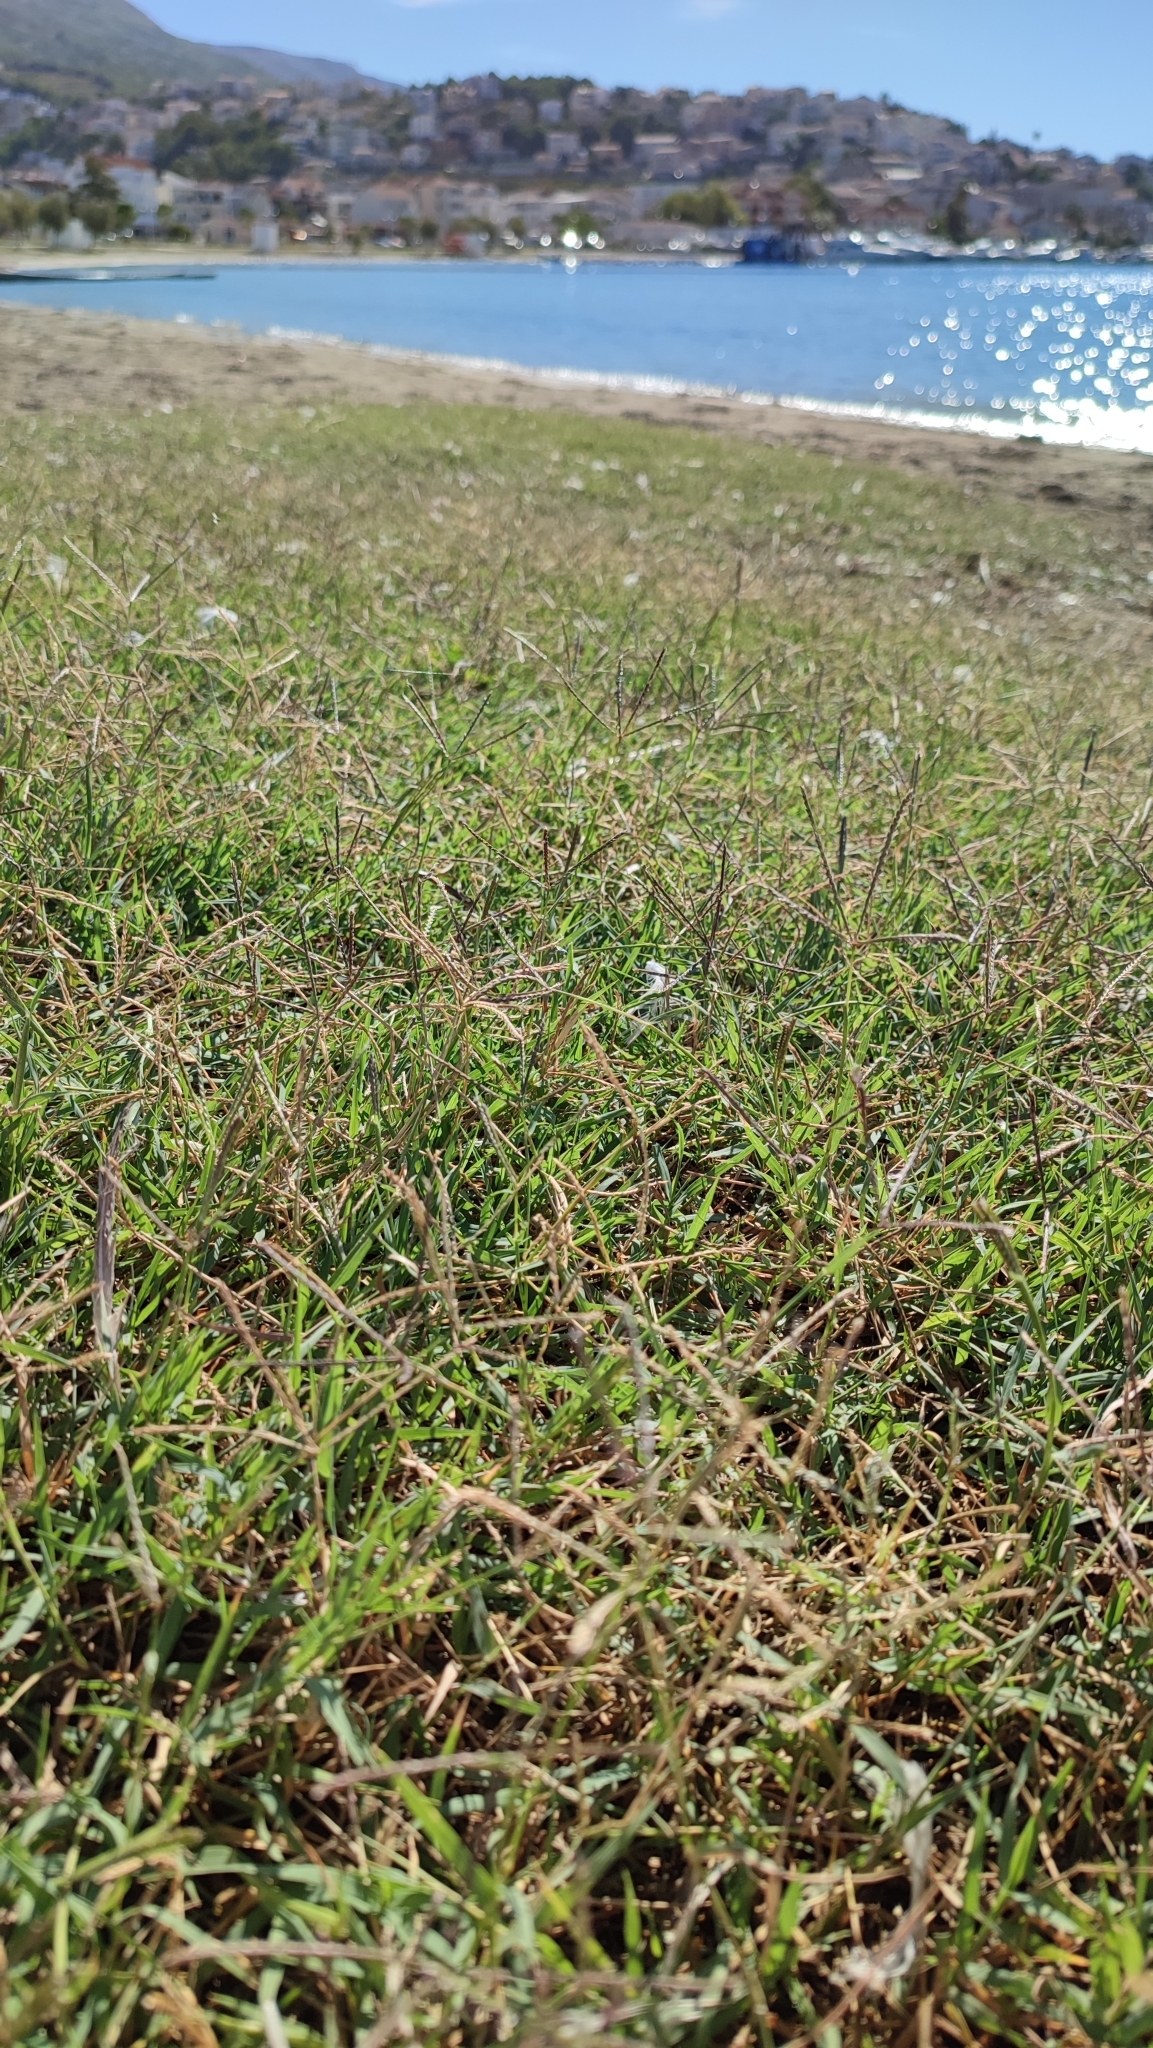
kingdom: Plantae
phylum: Tracheophyta
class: Liliopsida
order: Poales
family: Poaceae
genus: Cynodon
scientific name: Cynodon dactylon
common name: Bermuda grass
